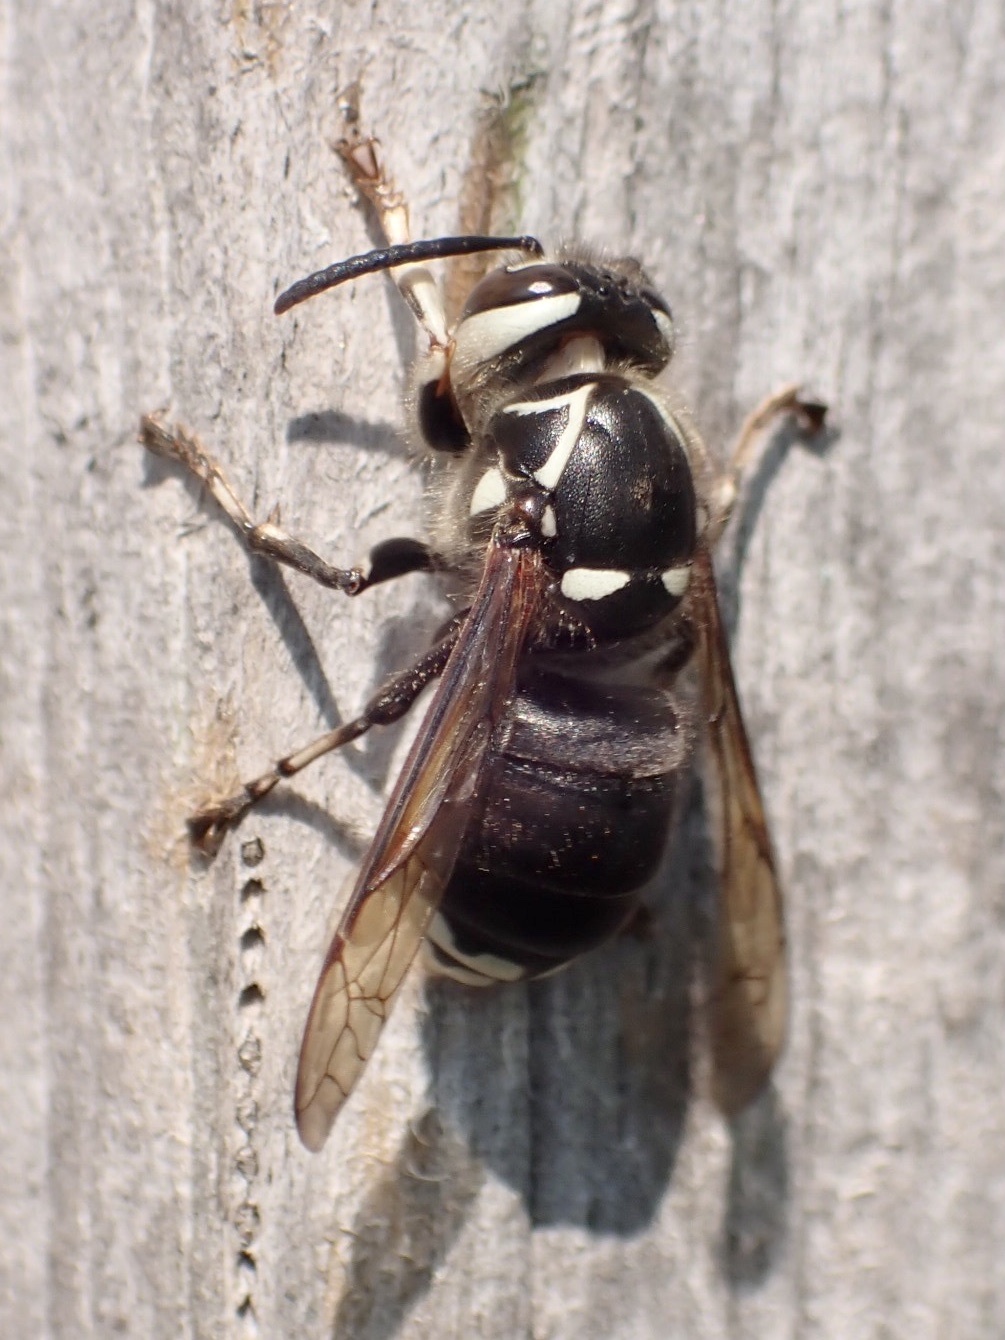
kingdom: Animalia
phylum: Arthropoda
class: Insecta
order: Hymenoptera
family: Vespidae
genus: Dolichovespula
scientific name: Dolichovespula maculata
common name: Bald-faced hornet
